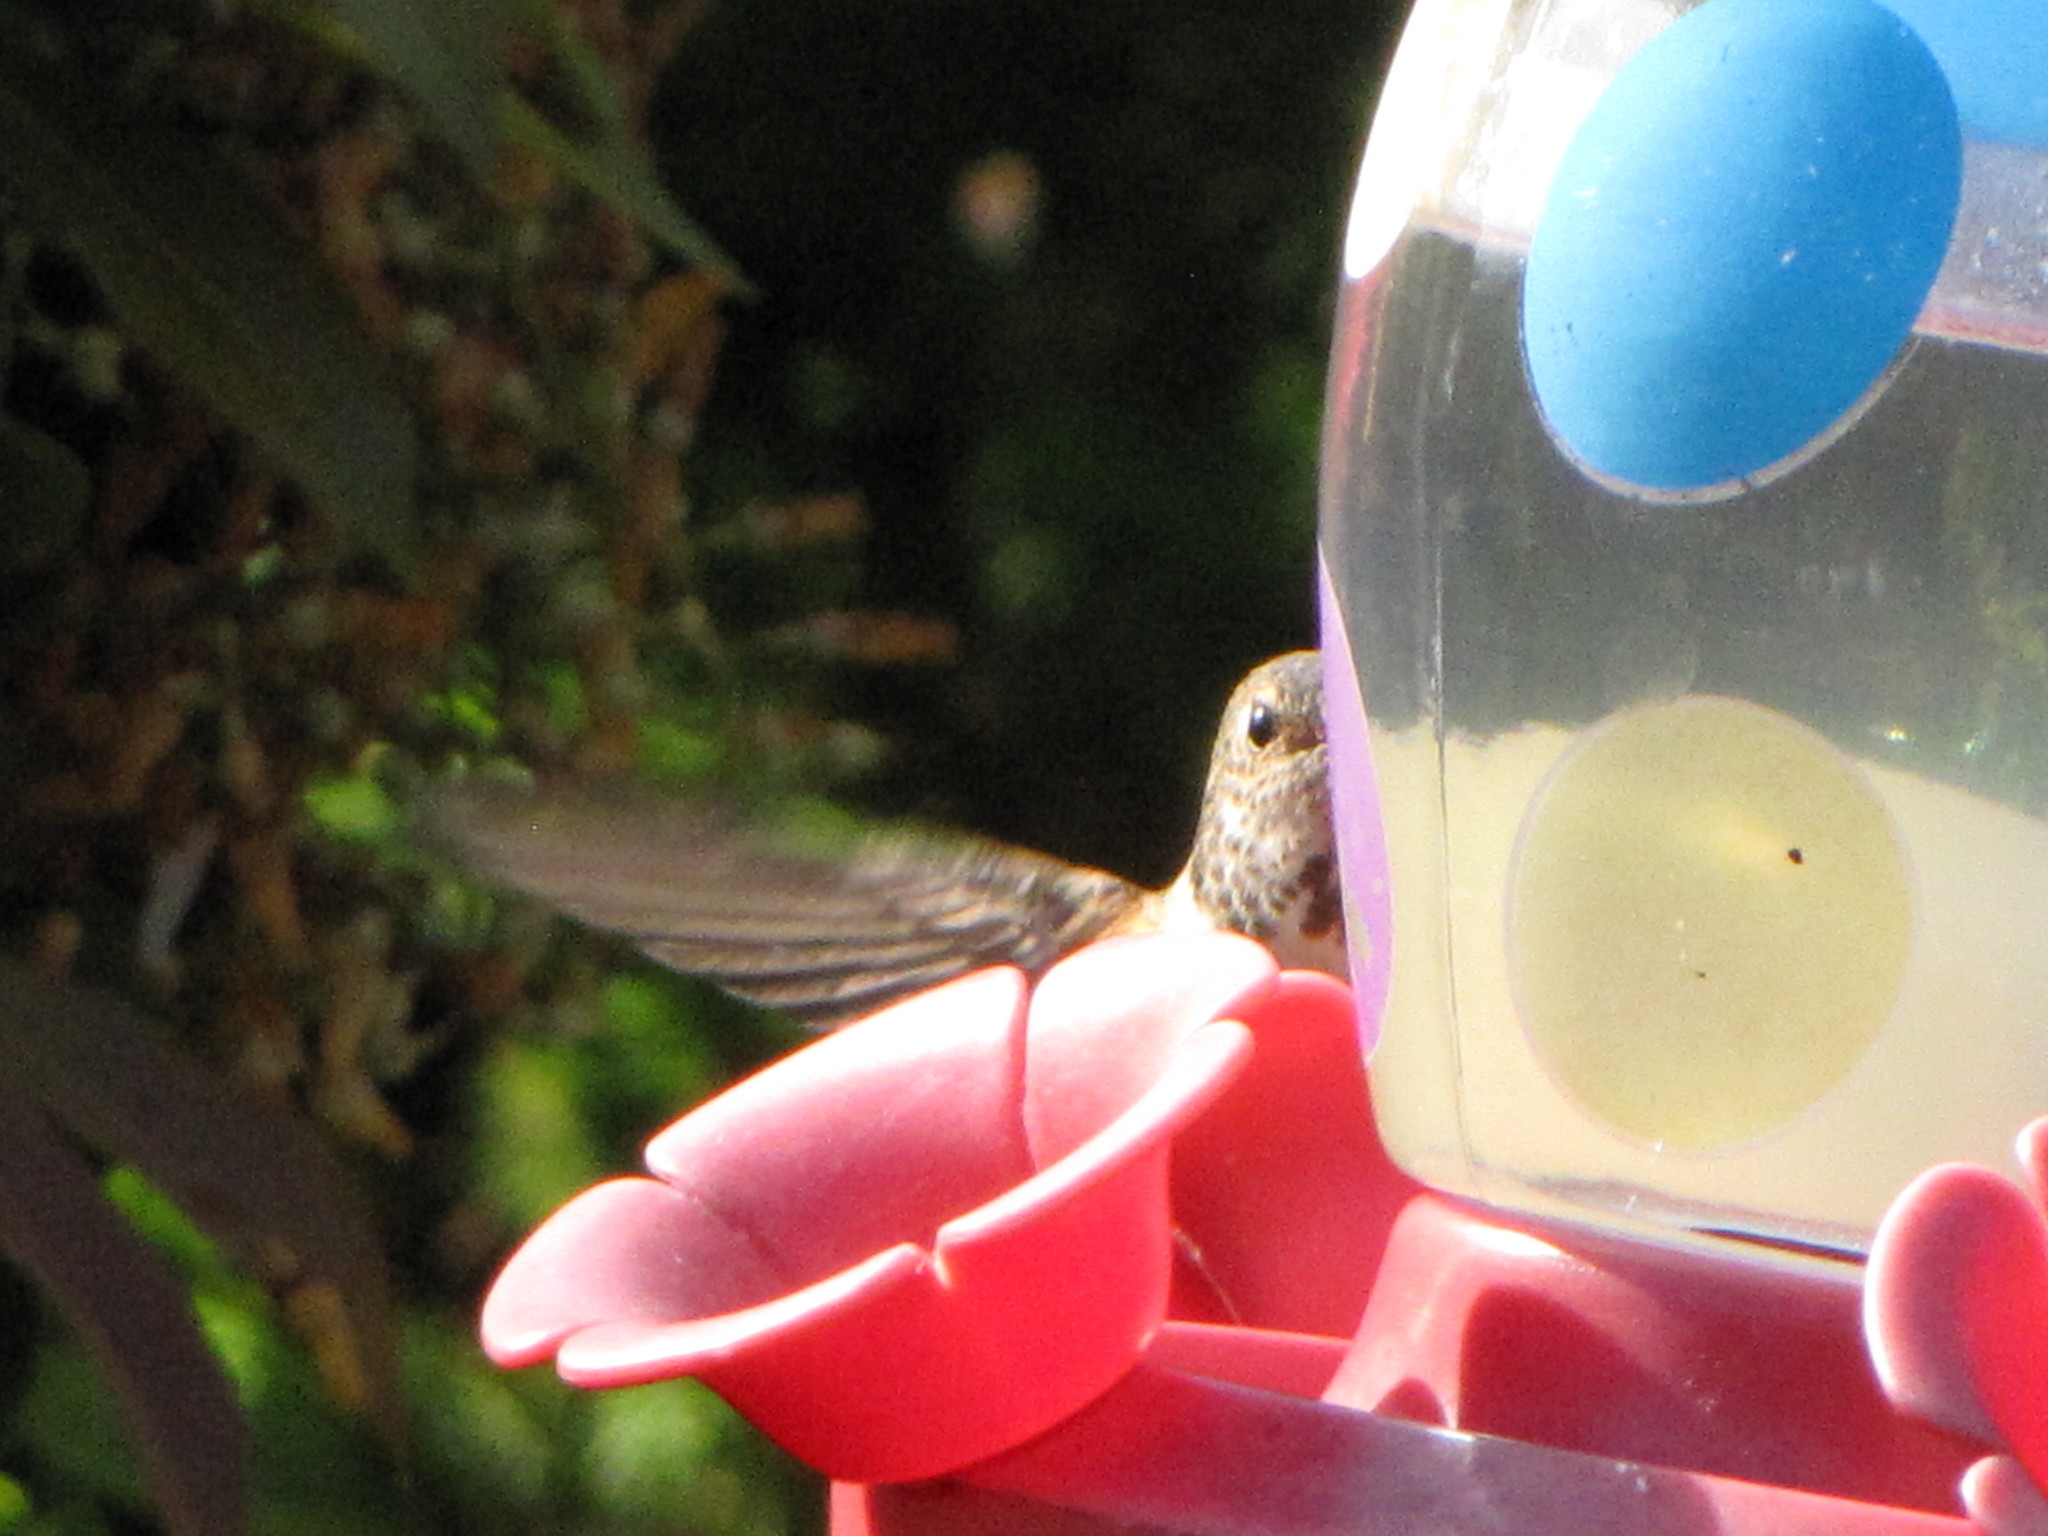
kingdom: Animalia
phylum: Chordata
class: Aves
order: Apodiformes
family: Trochilidae
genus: Selasphorus
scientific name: Selasphorus rufus
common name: Rufous hummingbird
